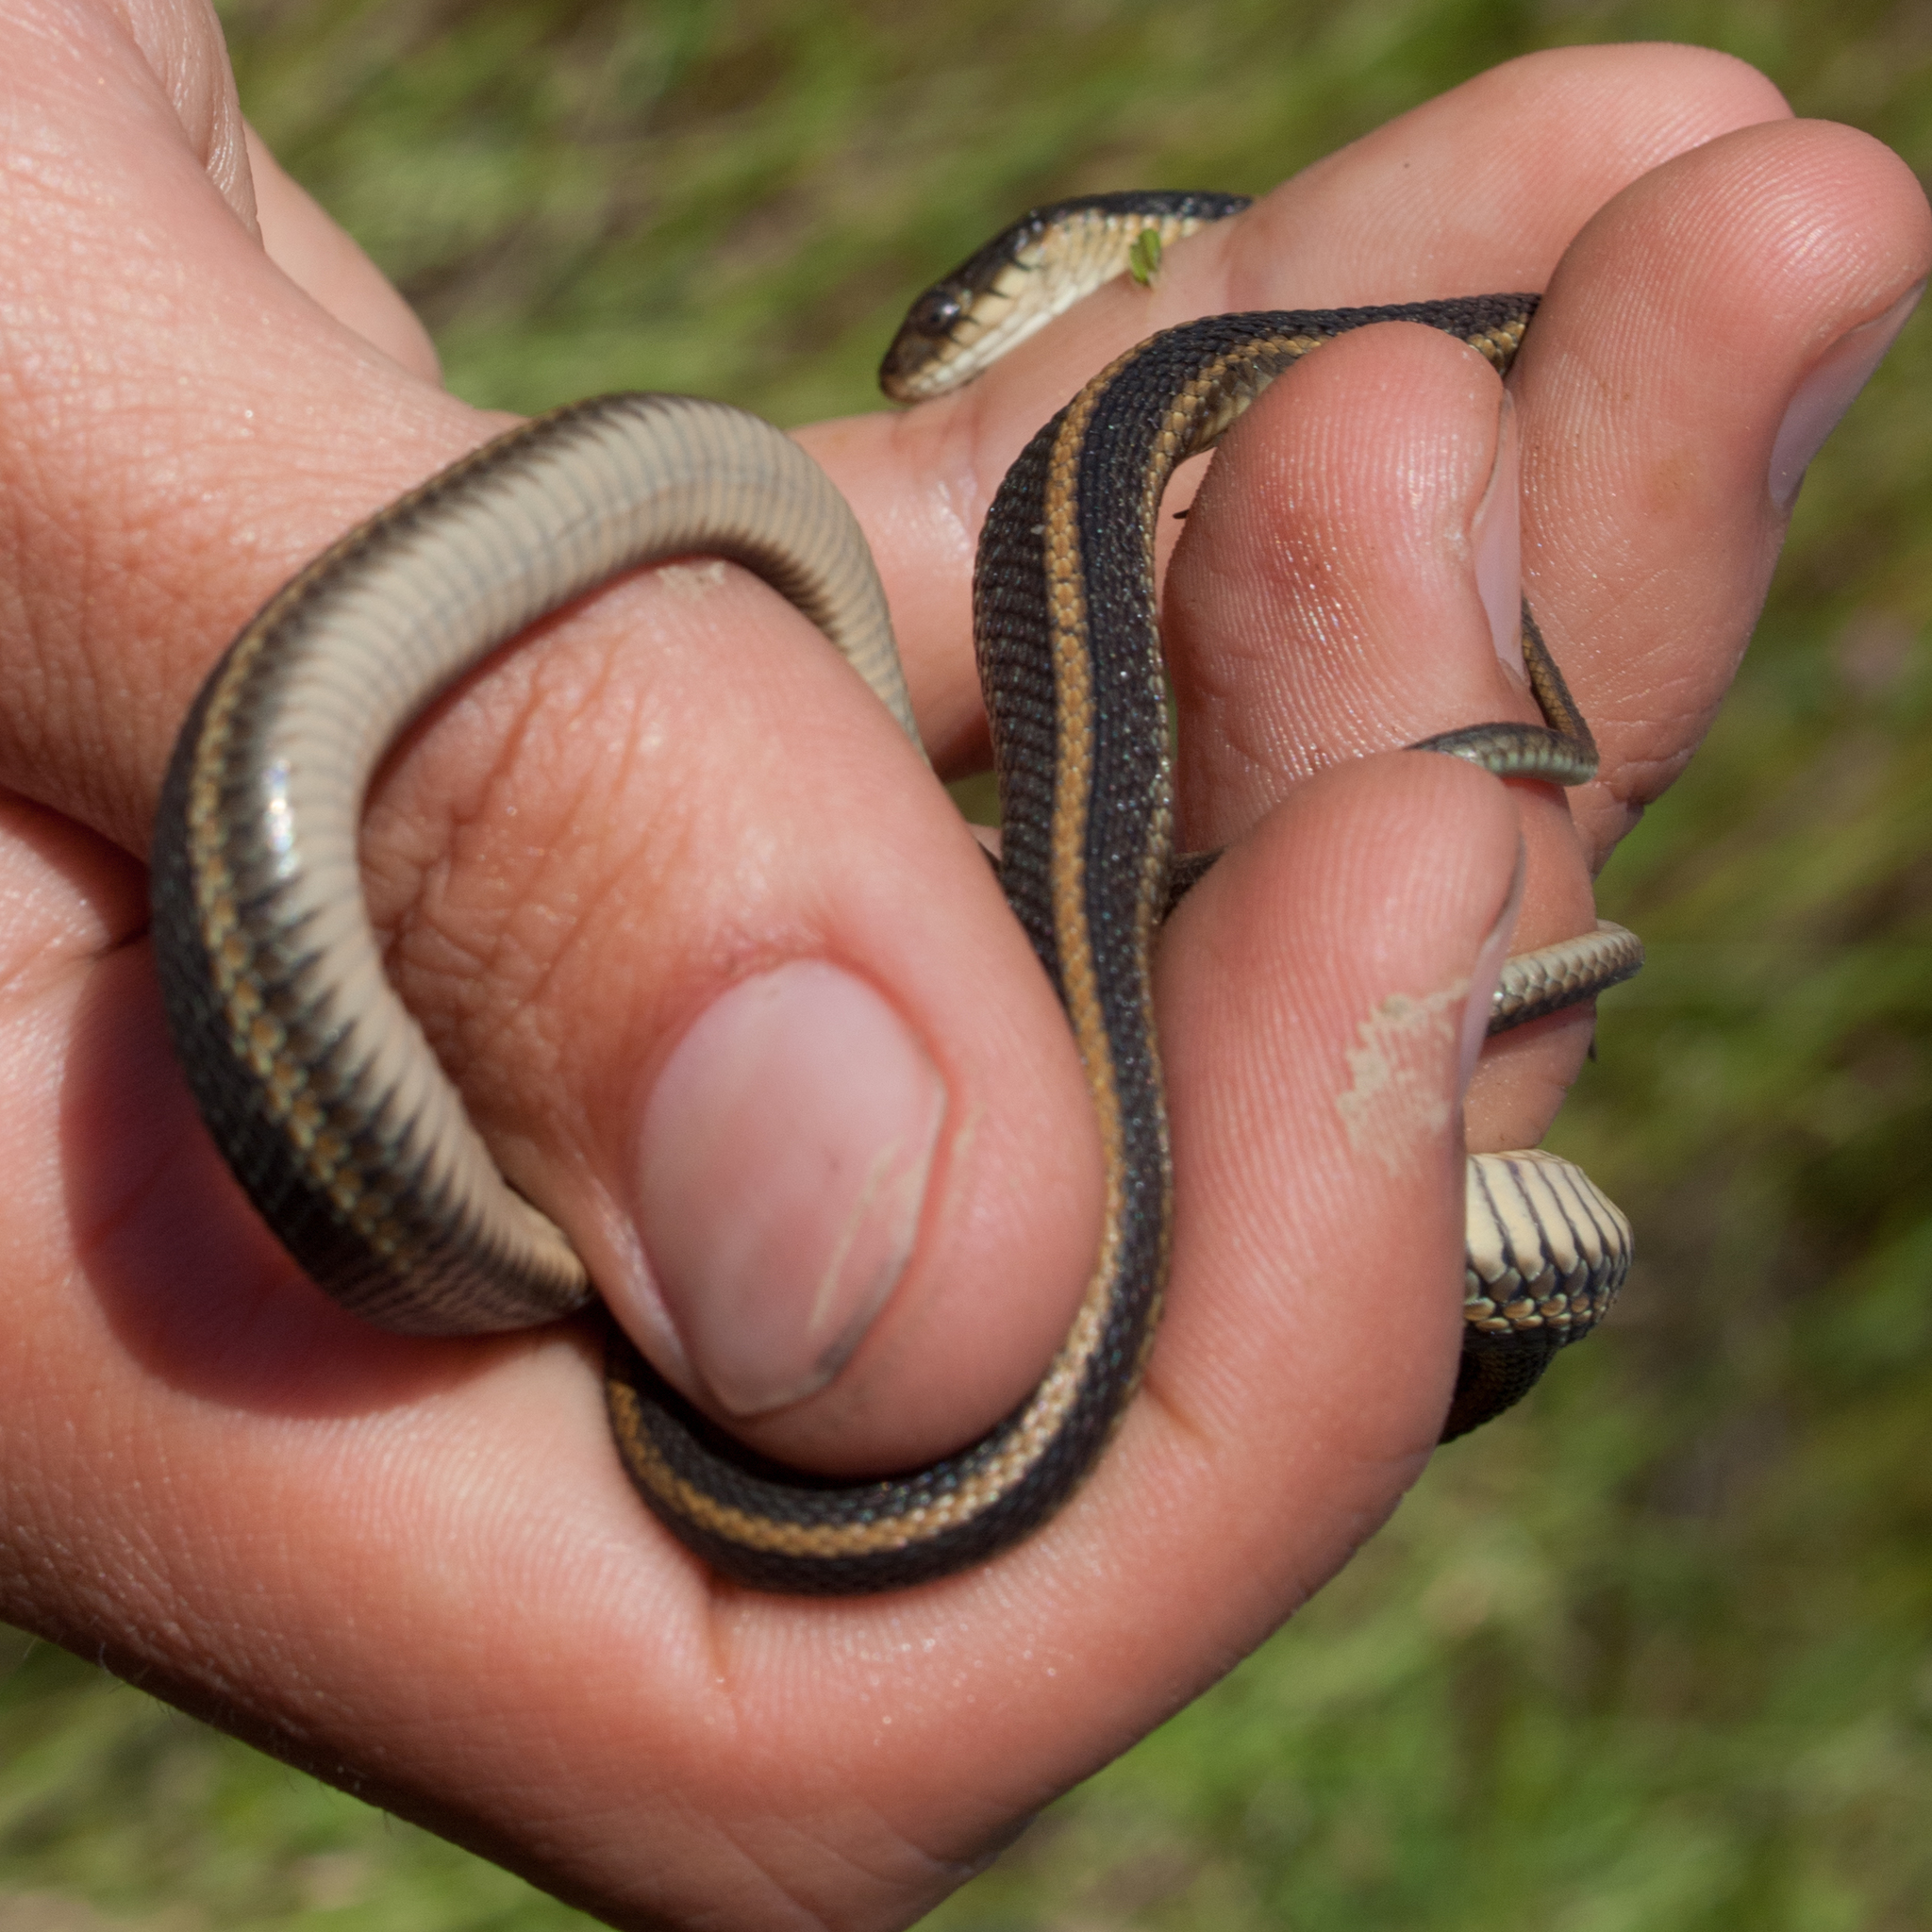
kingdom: Animalia
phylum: Chordata
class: Squamata
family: Colubridae
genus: Thamnophis
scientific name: Thamnophis atratus
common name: Pacific coast aquatic garter snake
